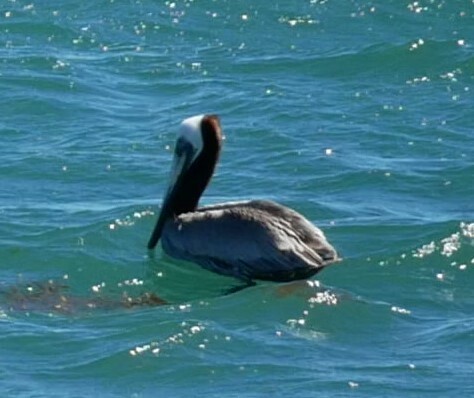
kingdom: Animalia
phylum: Chordata
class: Aves
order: Pelecaniformes
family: Pelecanidae
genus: Pelecanus
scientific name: Pelecanus occidentalis
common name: Brown pelican
